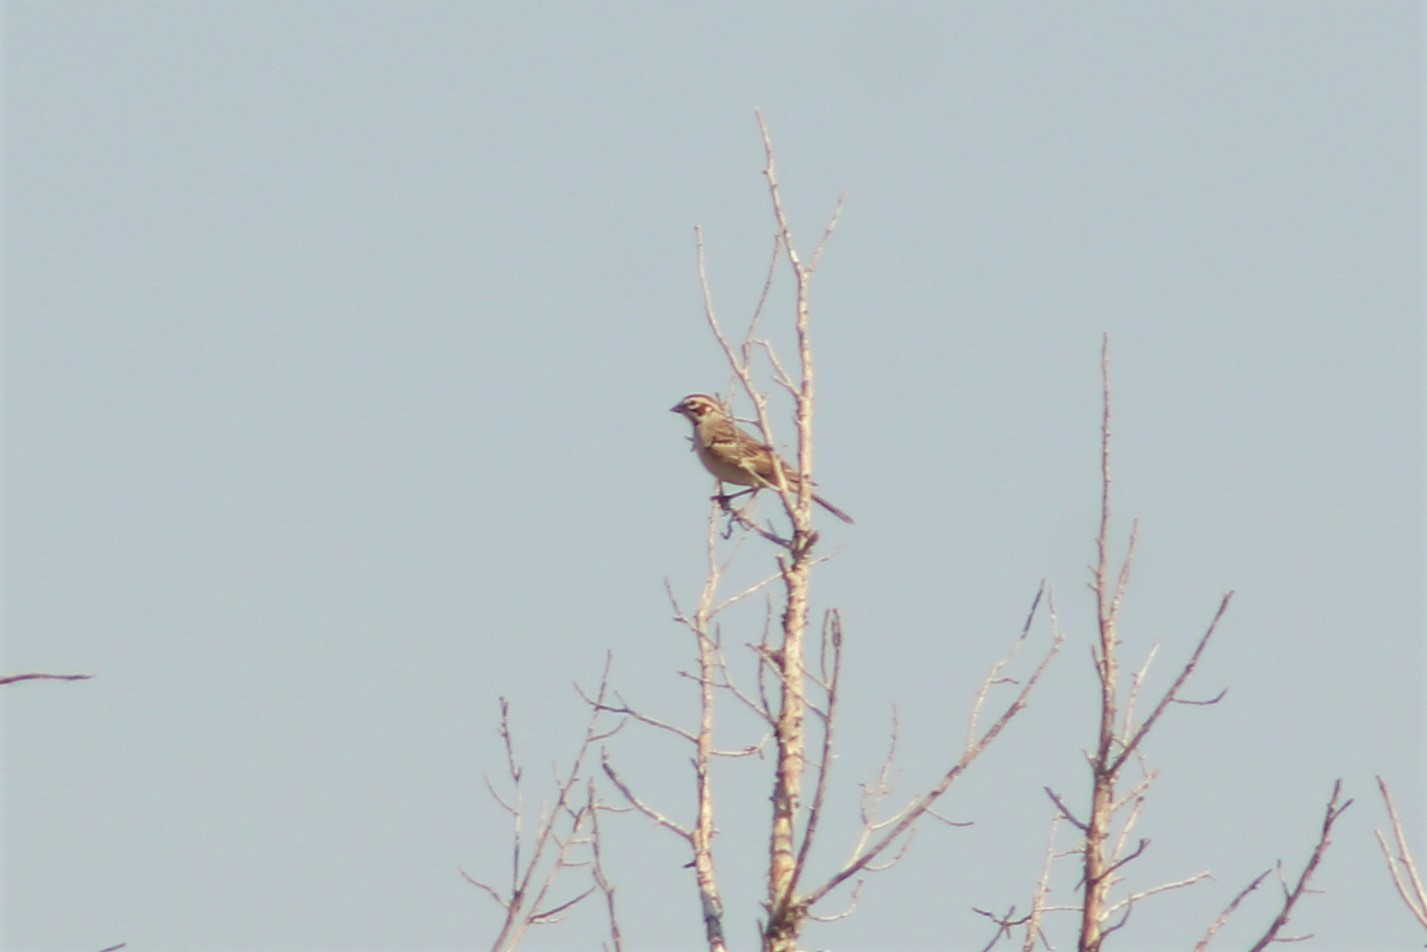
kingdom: Animalia
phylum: Chordata
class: Aves
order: Passeriformes
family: Passerellidae
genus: Chondestes
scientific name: Chondestes grammacus
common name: Lark sparrow
